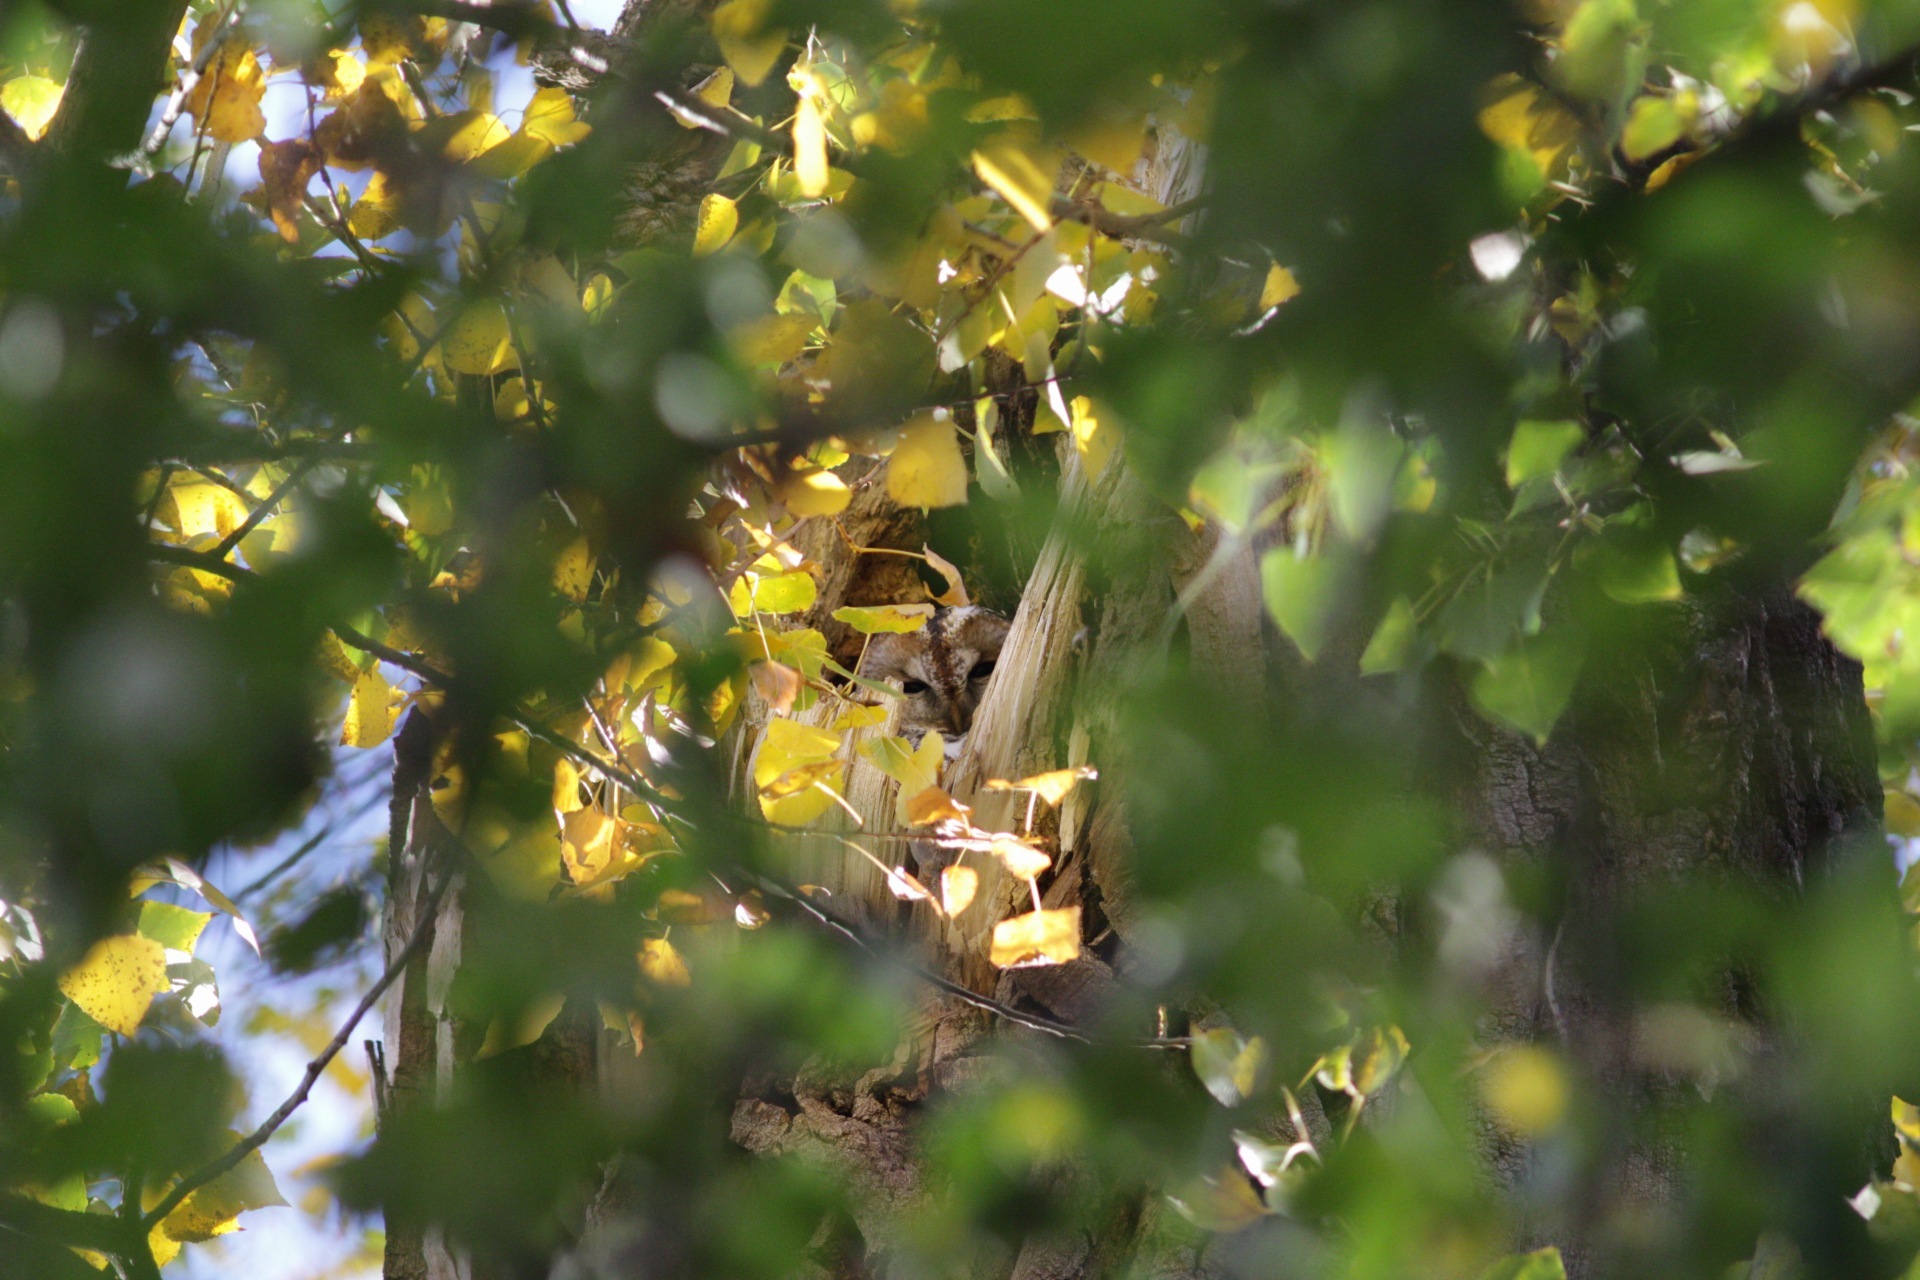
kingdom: Animalia
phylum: Chordata
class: Aves
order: Strigiformes
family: Strigidae
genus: Strix
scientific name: Strix aluco
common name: Tawny owl
